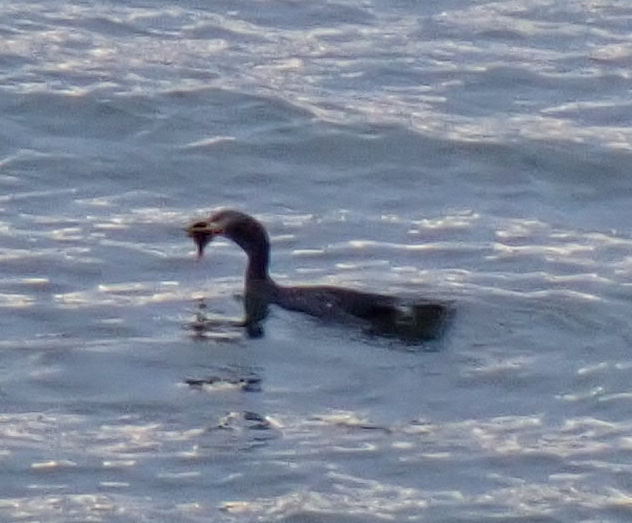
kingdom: Animalia
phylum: Chordata
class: Aves
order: Suliformes
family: Phalacrocoracidae
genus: Phalacrocorax
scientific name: Phalacrocorax auritus
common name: Double-crested cormorant
